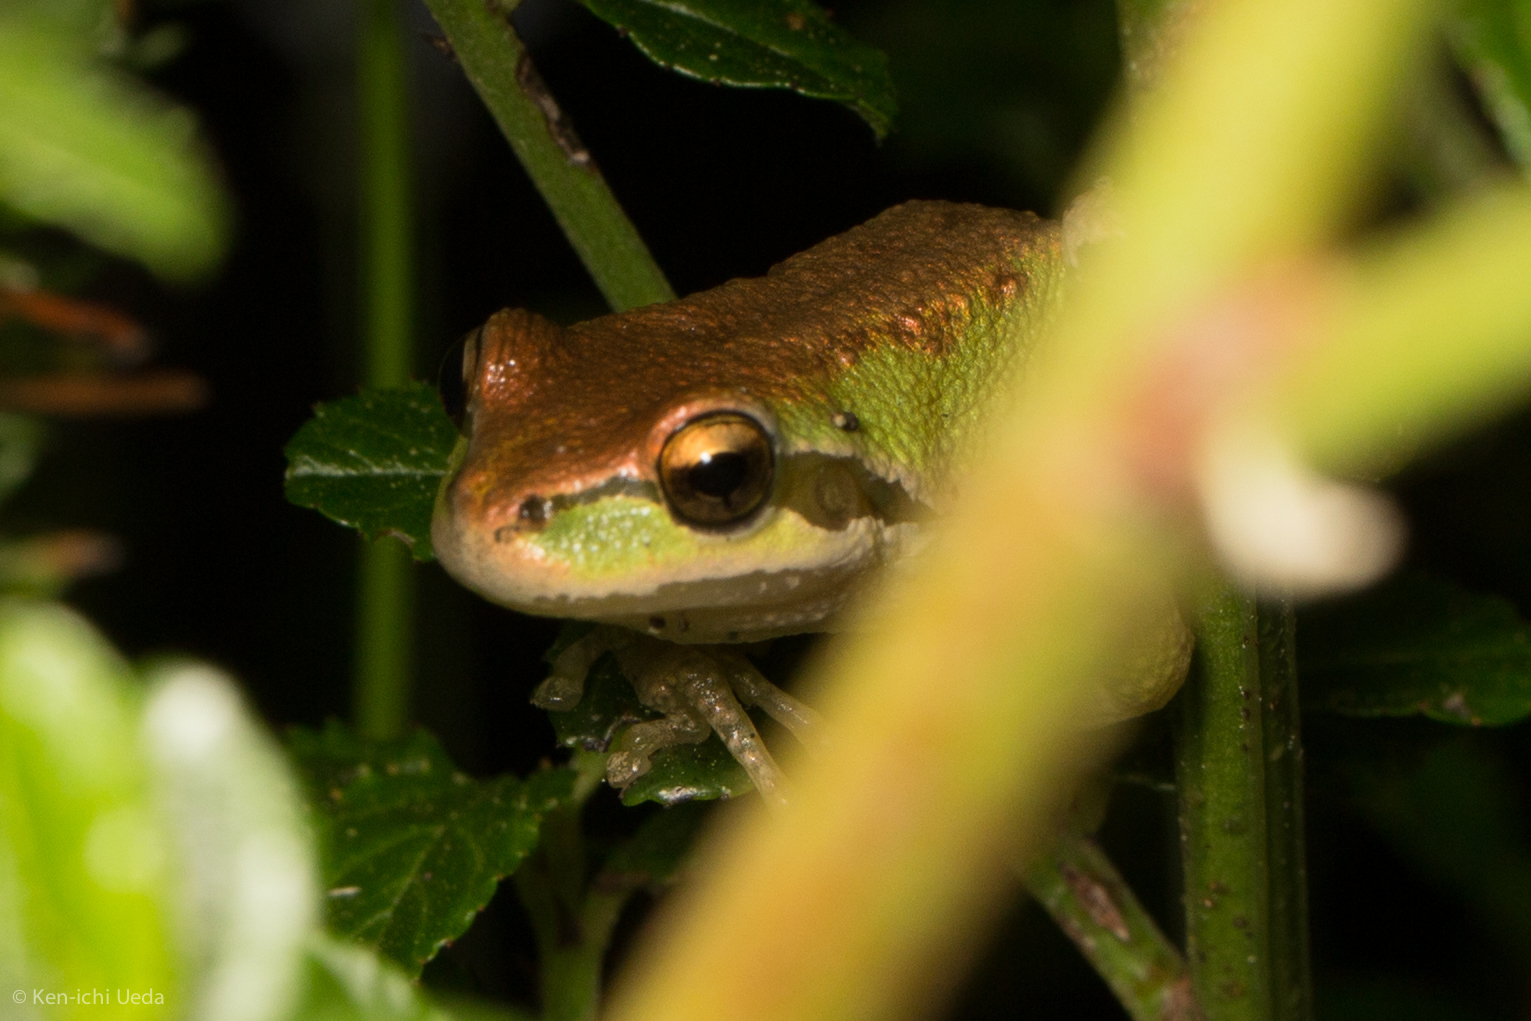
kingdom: Animalia
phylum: Chordata
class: Amphibia
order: Anura
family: Hylidae
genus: Pseudacris
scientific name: Pseudacris regilla
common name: Pacific chorus frog
